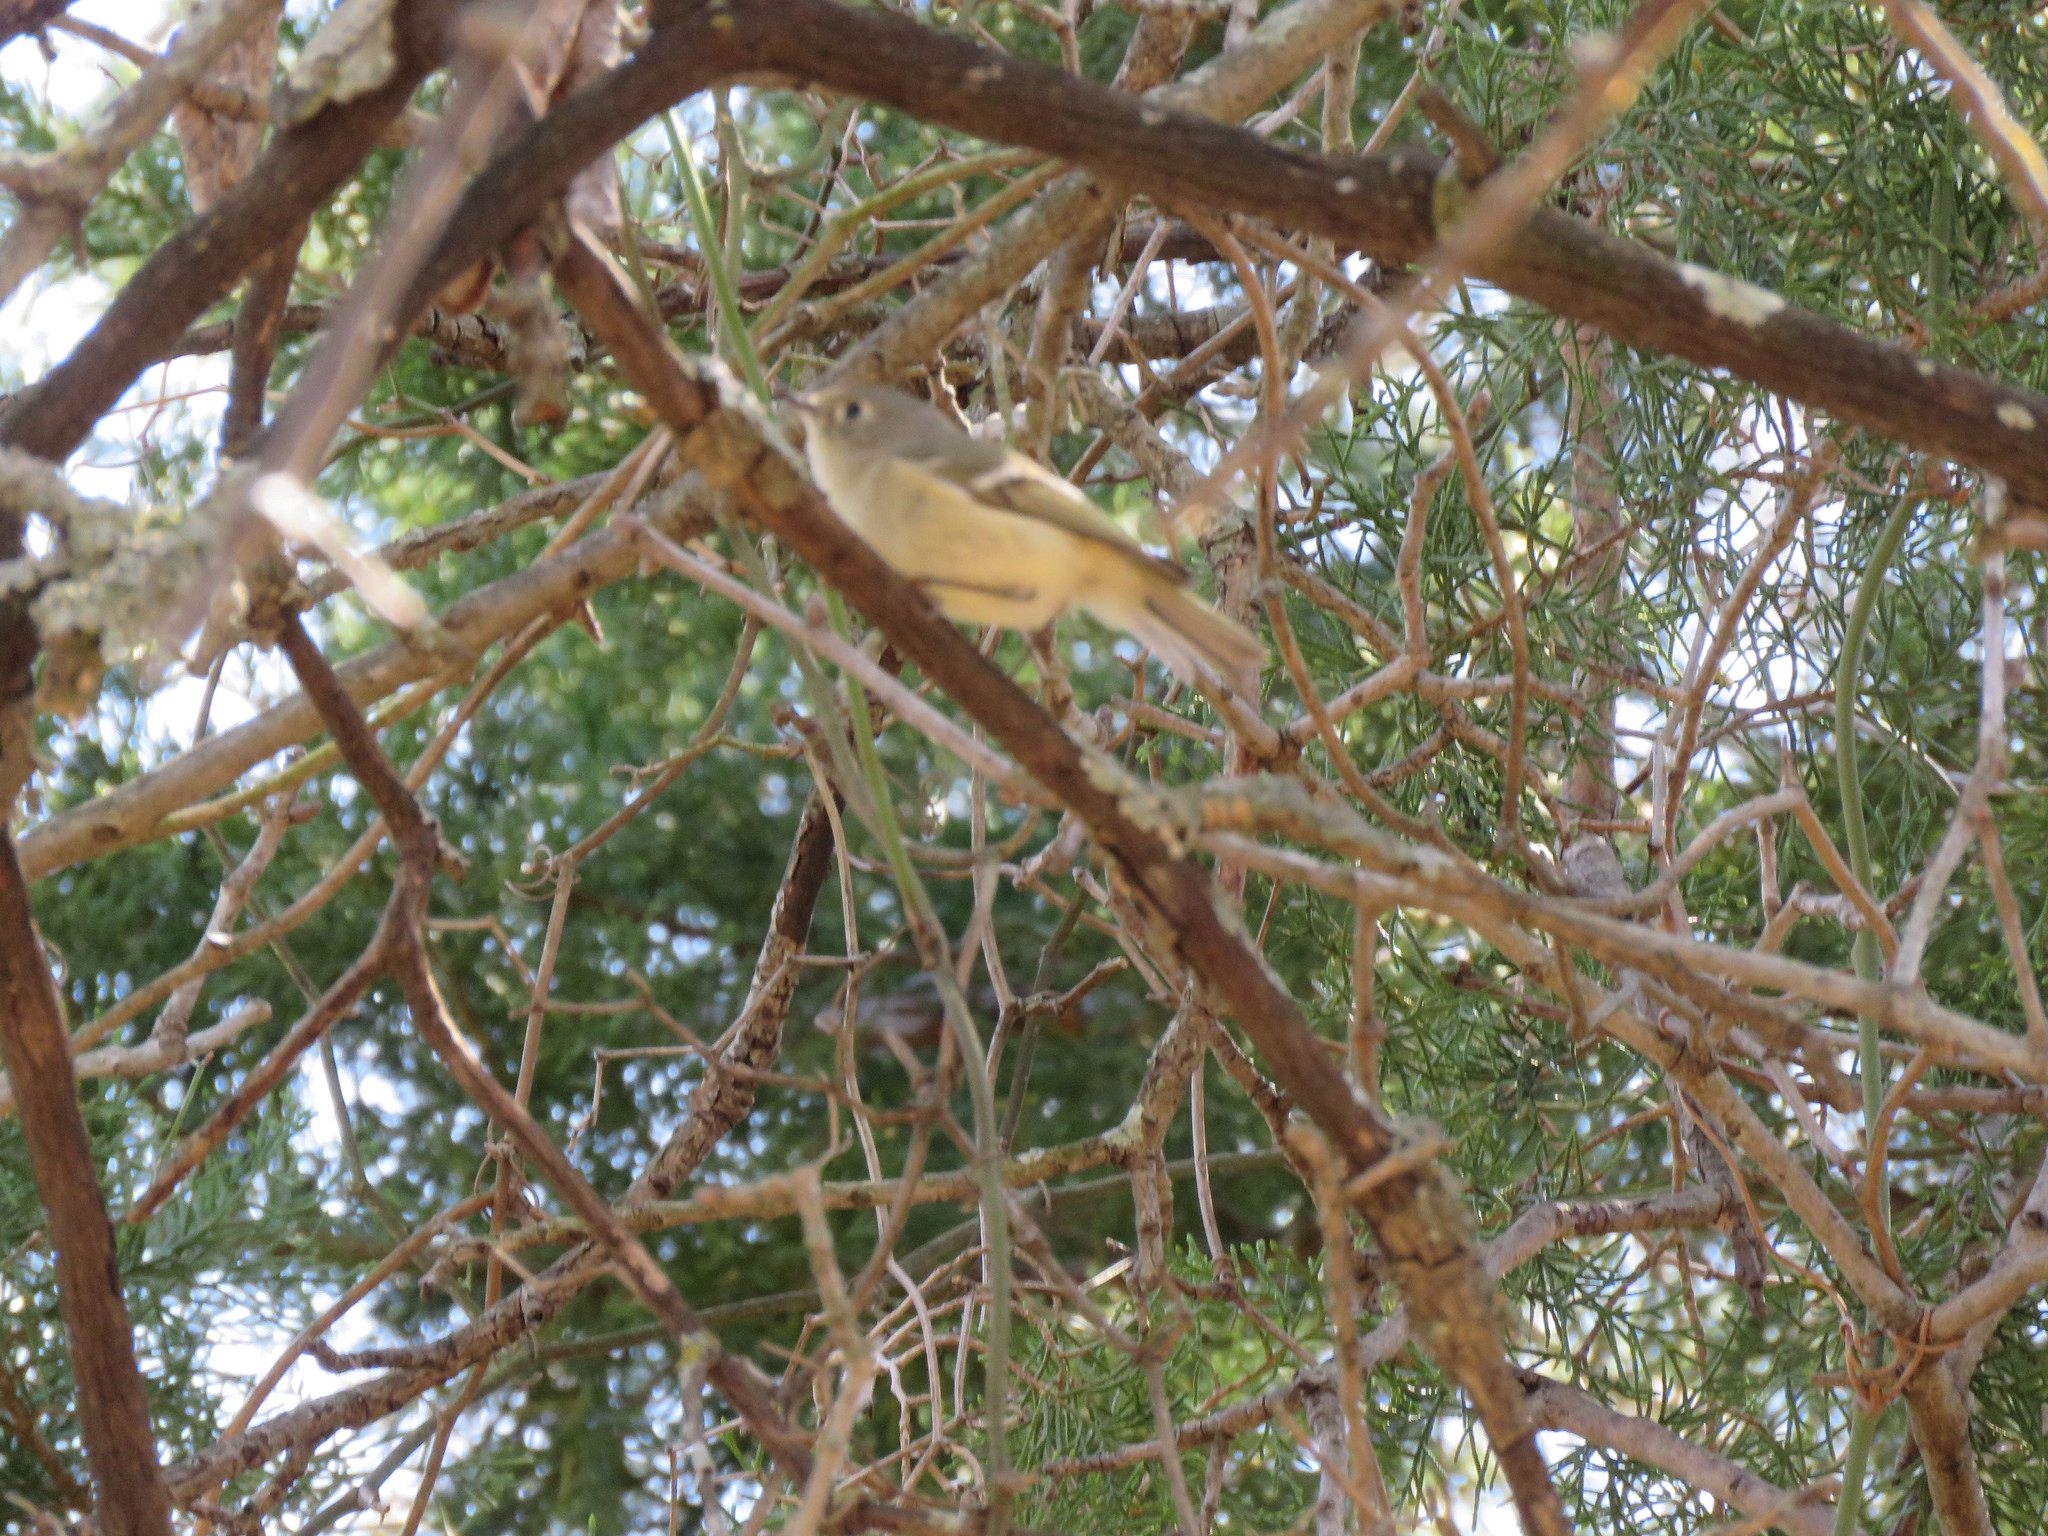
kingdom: Animalia
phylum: Chordata
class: Aves
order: Passeriformes
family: Regulidae
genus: Regulus
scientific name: Regulus calendula
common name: Ruby-crowned kinglet
